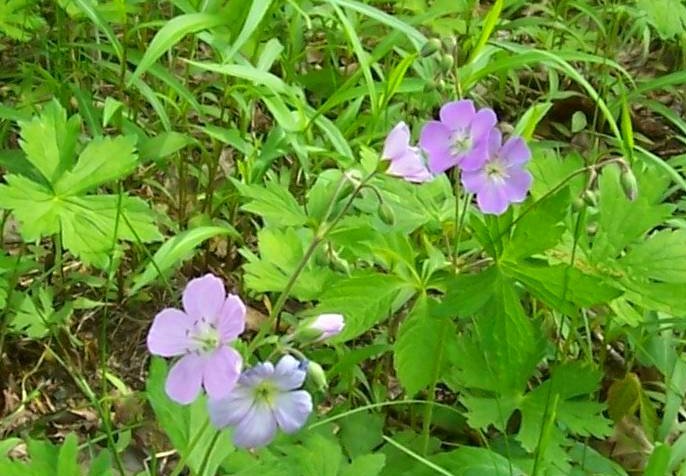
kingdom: Plantae
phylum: Tracheophyta
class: Magnoliopsida
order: Geraniales
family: Geraniaceae
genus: Geranium
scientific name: Geranium maculatum
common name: Spotted geranium
